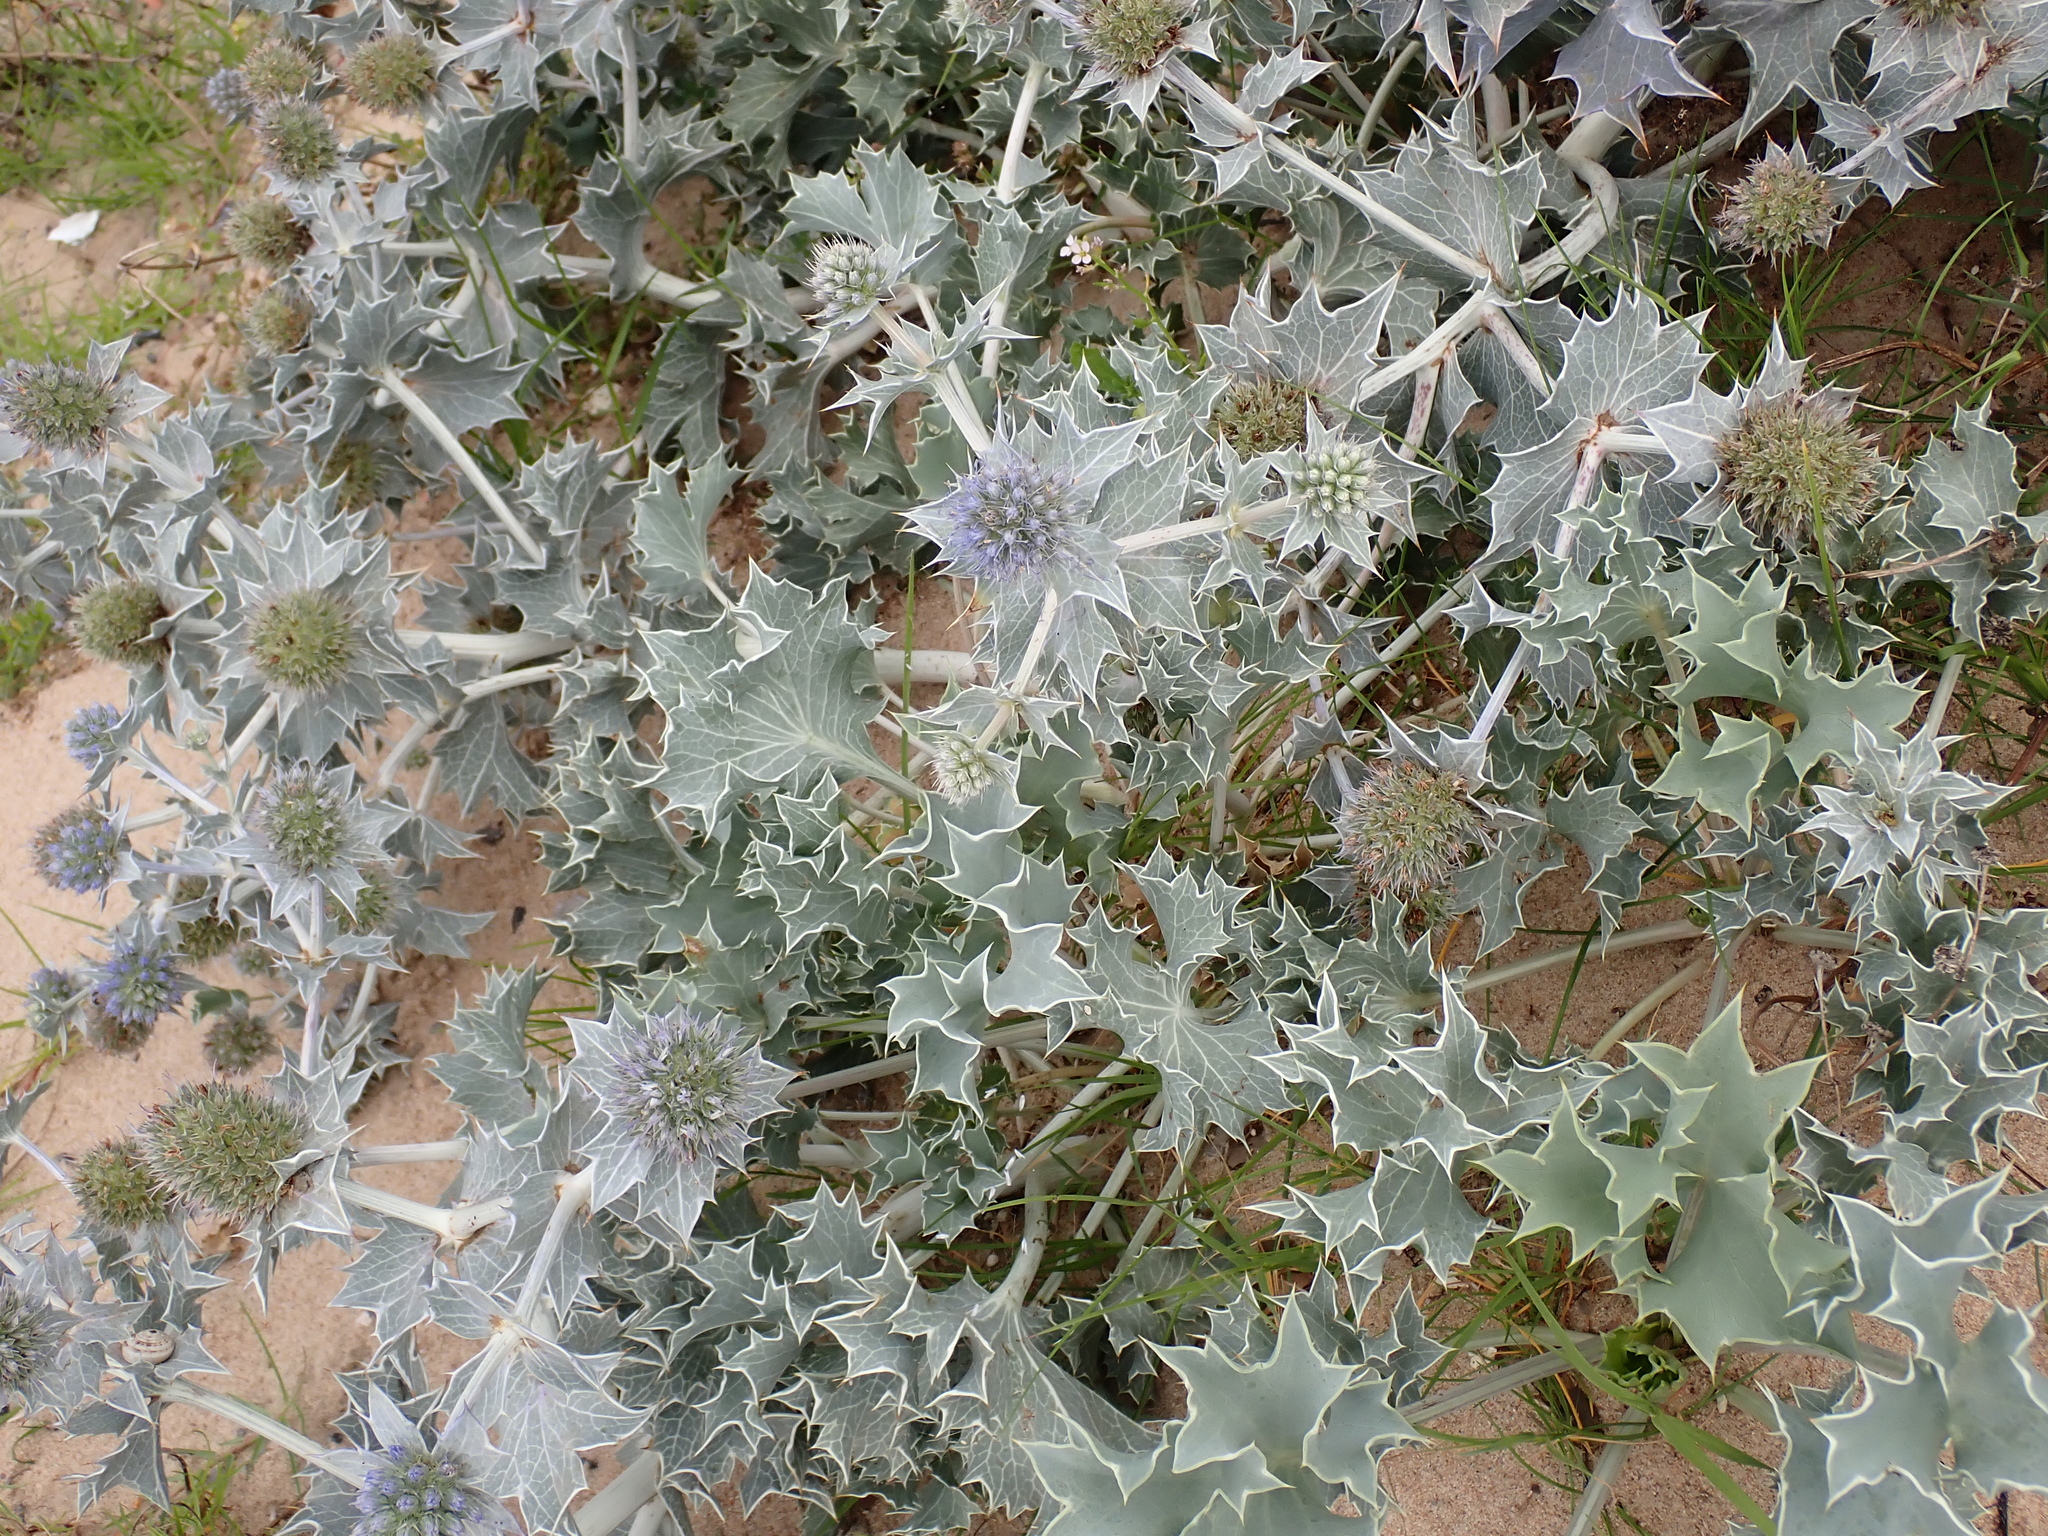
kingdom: Plantae
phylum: Tracheophyta
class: Magnoliopsida
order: Apiales
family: Apiaceae
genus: Eryngium
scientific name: Eryngium maritimum
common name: Sea-holly
